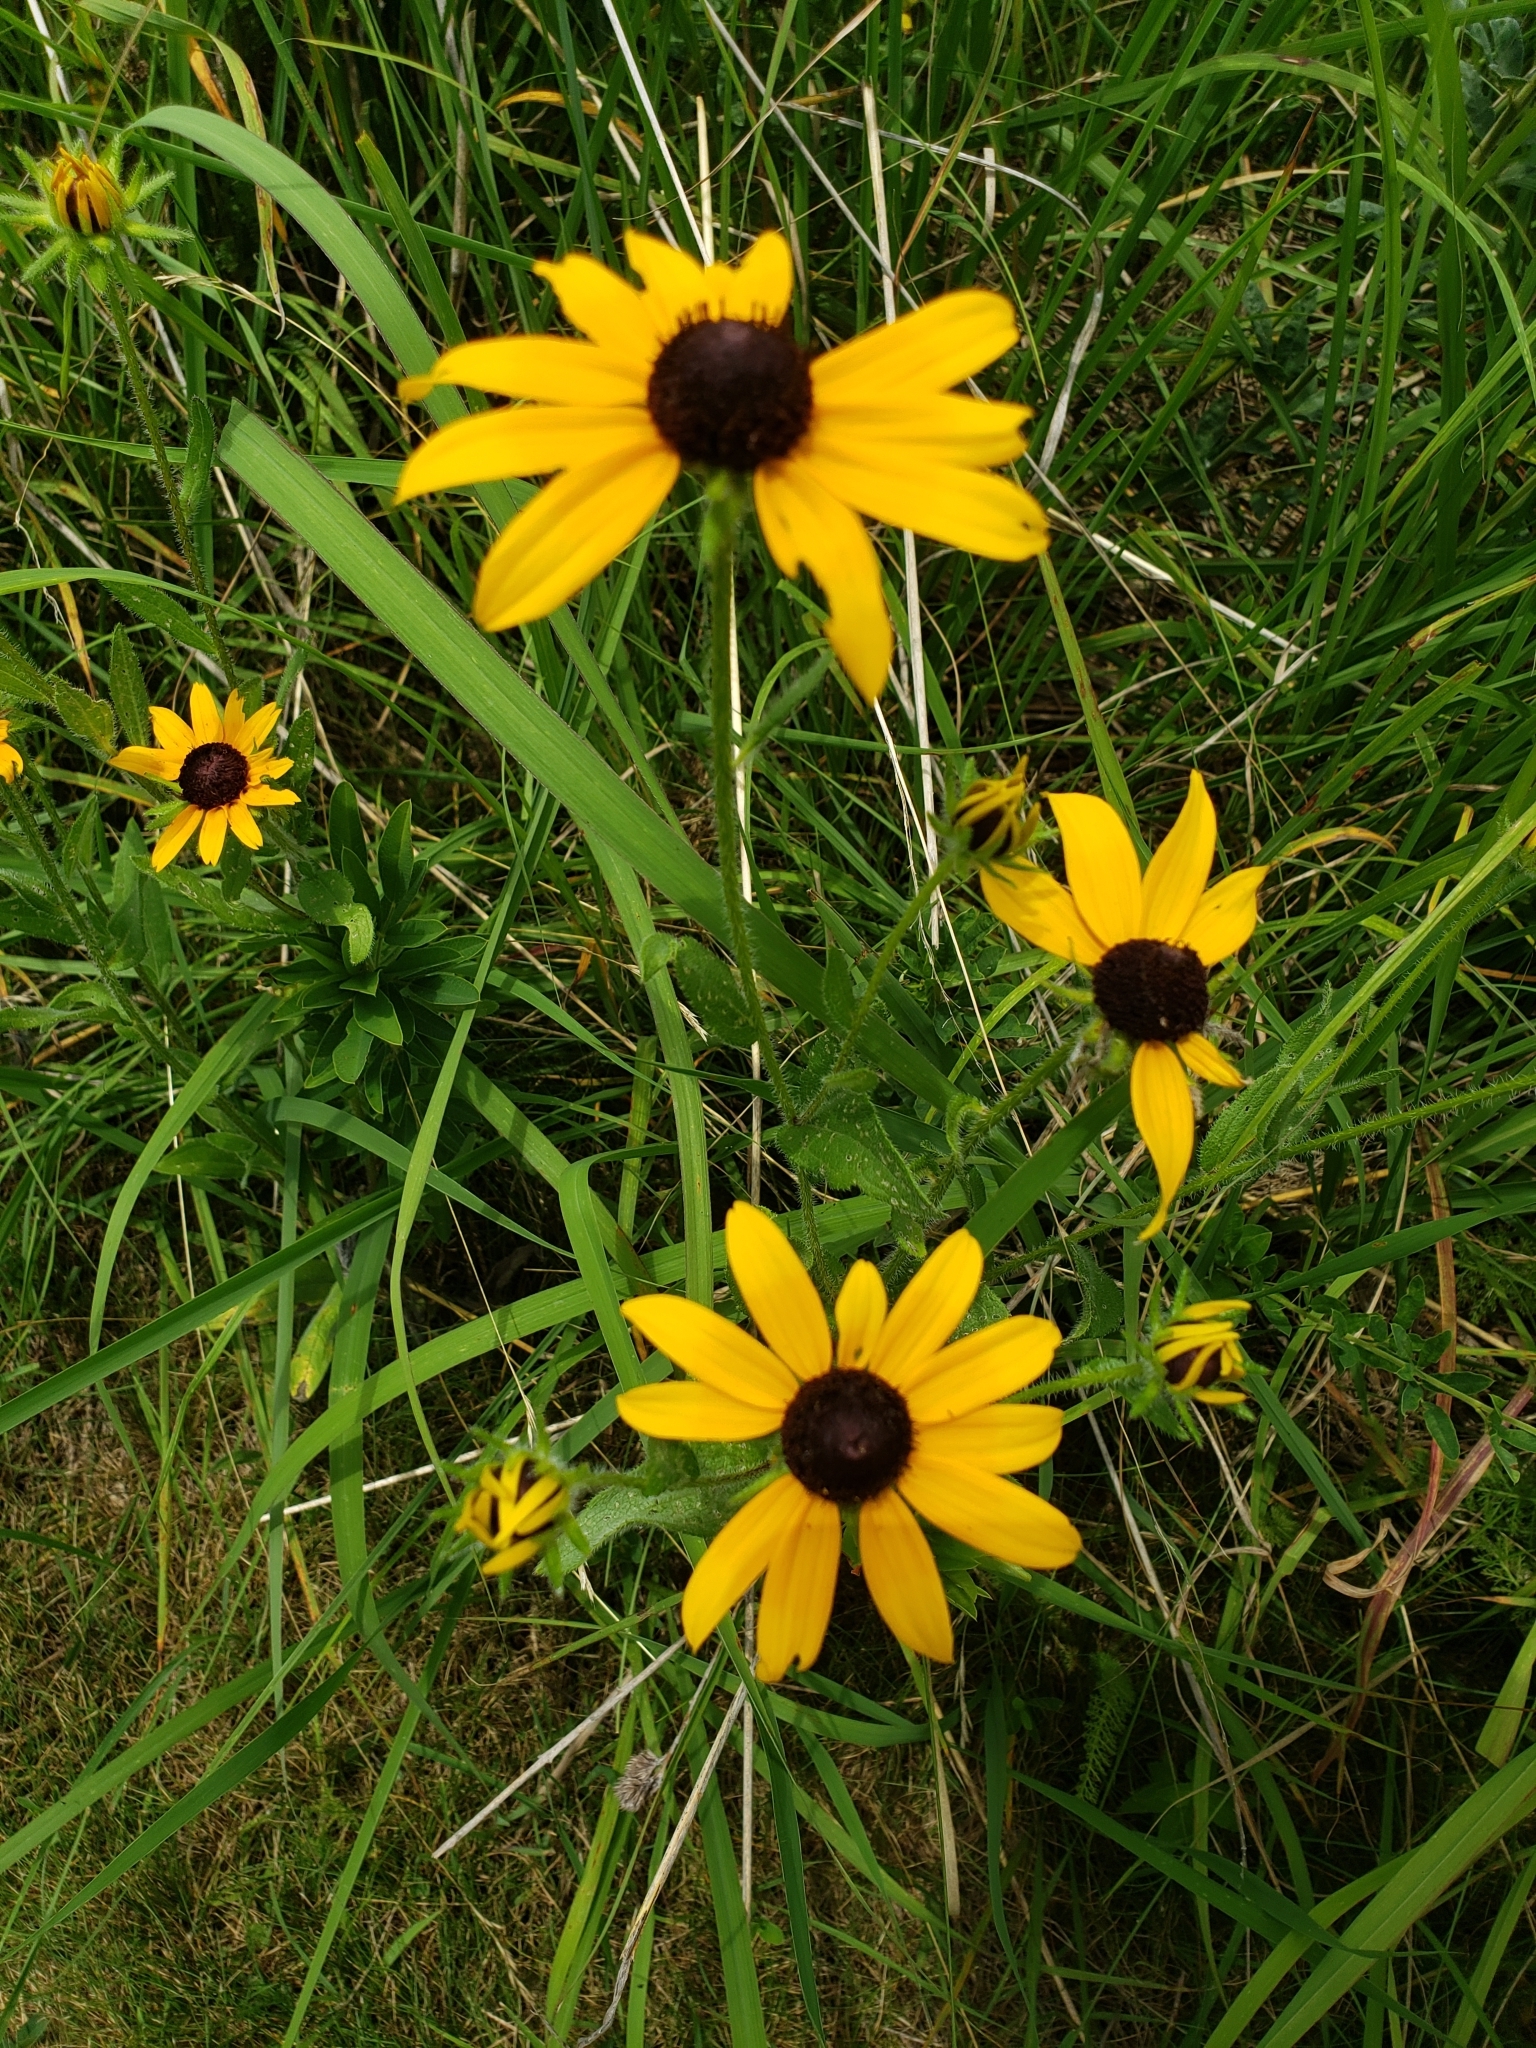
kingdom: Plantae
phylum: Tracheophyta
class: Magnoliopsida
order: Asterales
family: Asteraceae
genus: Rudbeckia
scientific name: Rudbeckia hirta
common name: Black-eyed-susan
